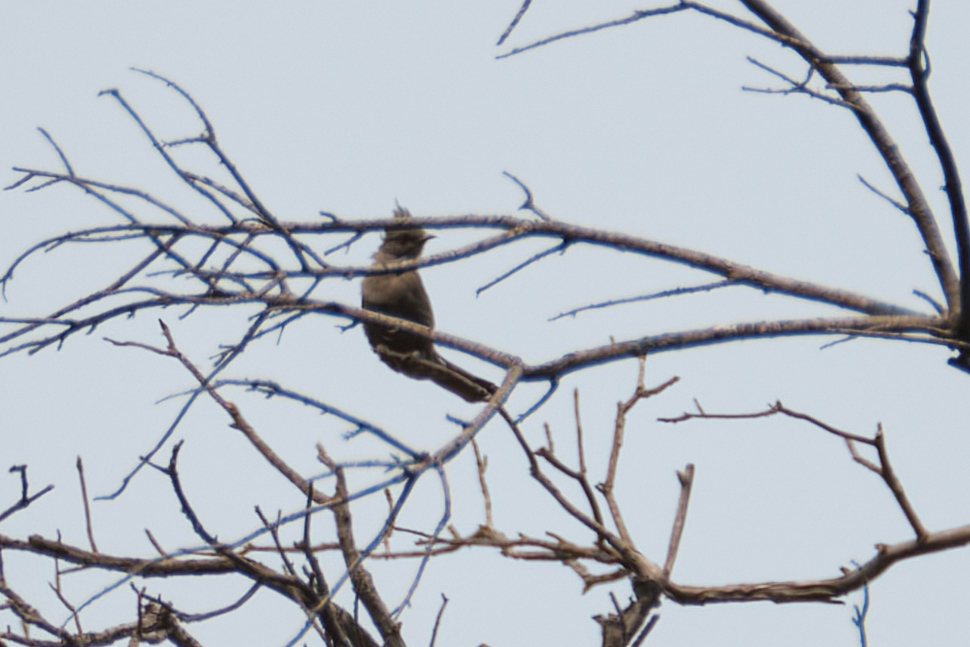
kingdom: Animalia
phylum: Chordata
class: Aves
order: Passeriformes
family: Ptilogonatidae
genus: Phainopepla
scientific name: Phainopepla nitens
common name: Phainopepla
